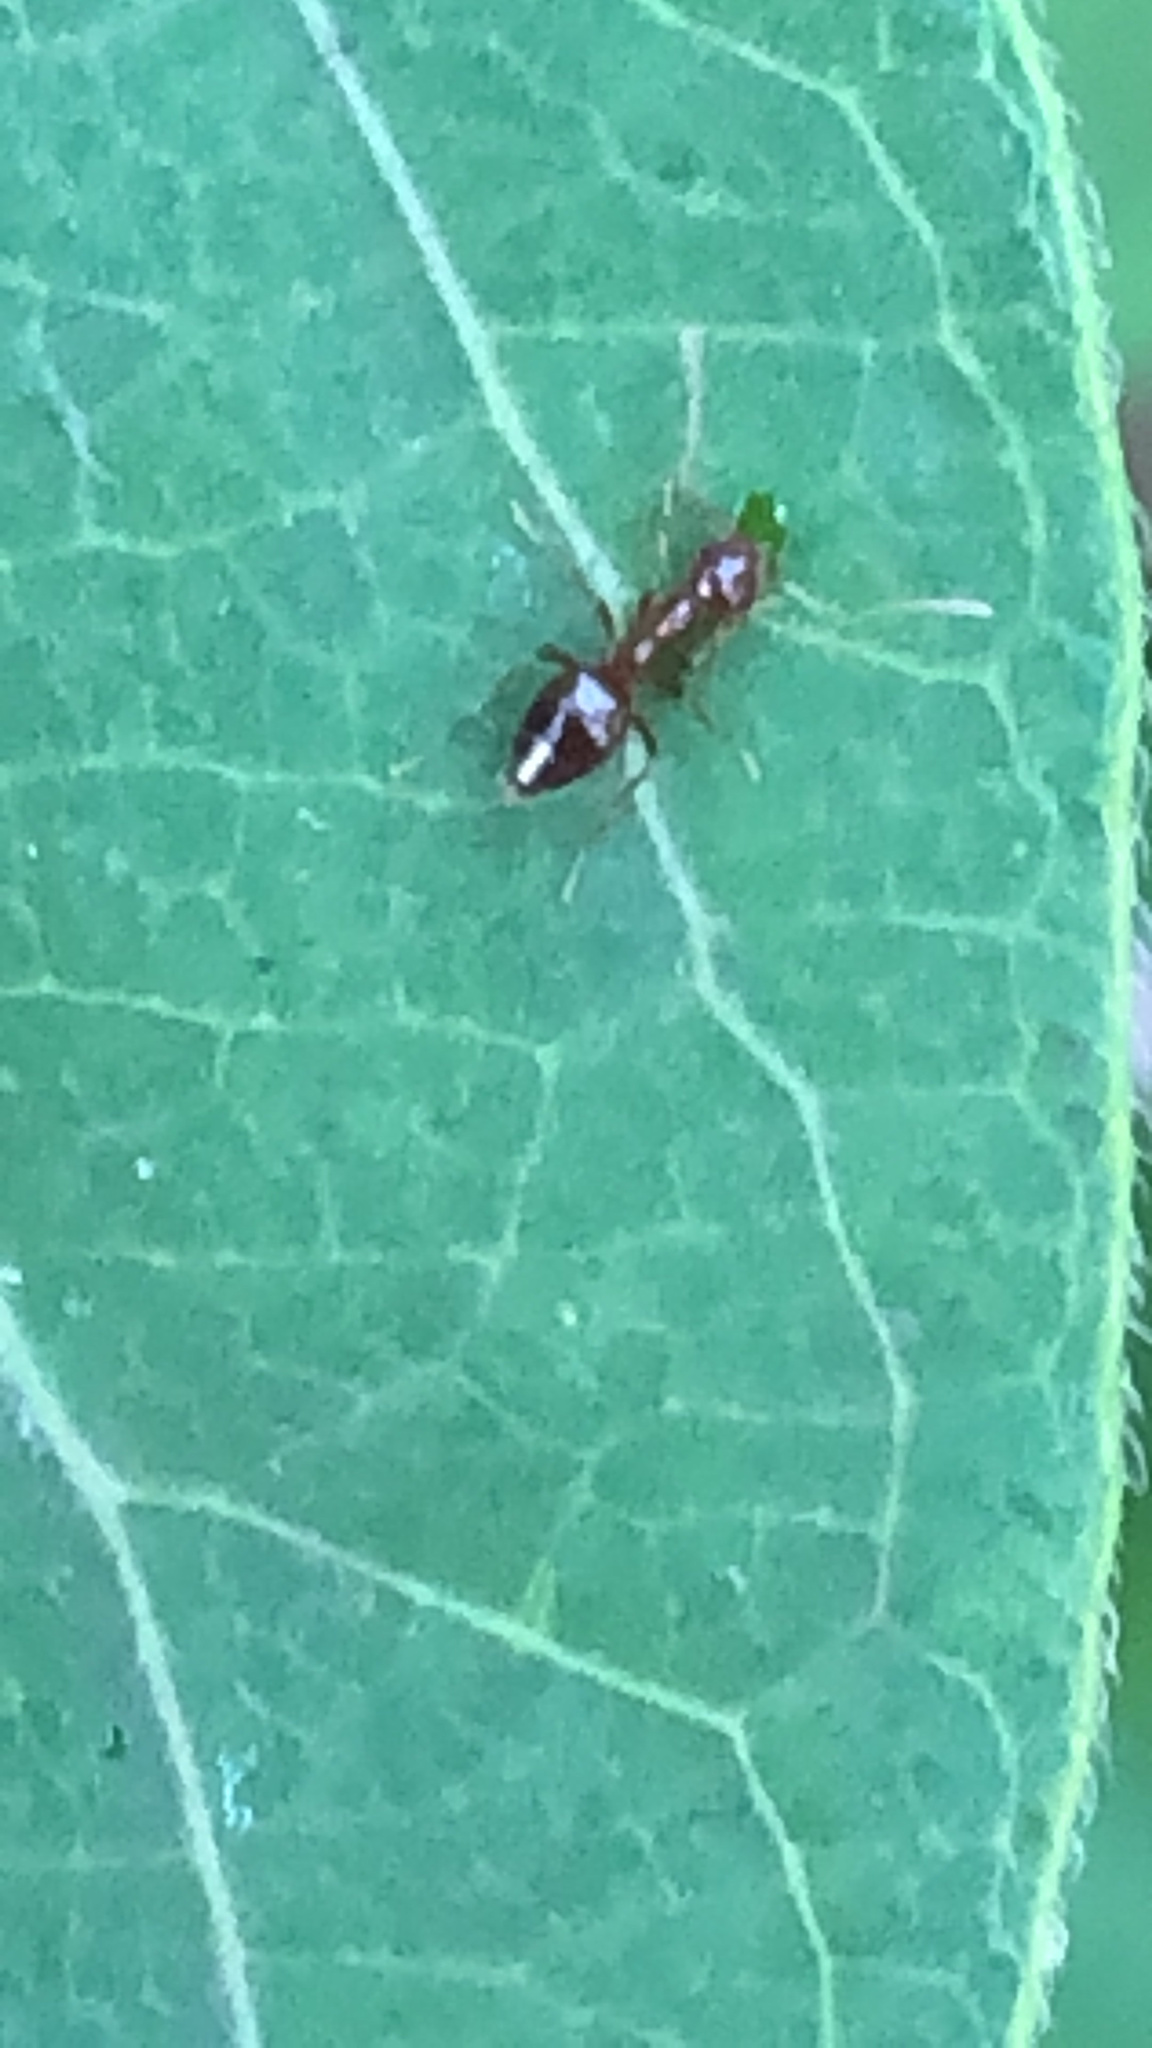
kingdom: Animalia
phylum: Arthropoda
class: Insecta
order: Hymenoptera
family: Formicidae
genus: Prenolepis
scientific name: Prenolepis imparis
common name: Small honey ant
